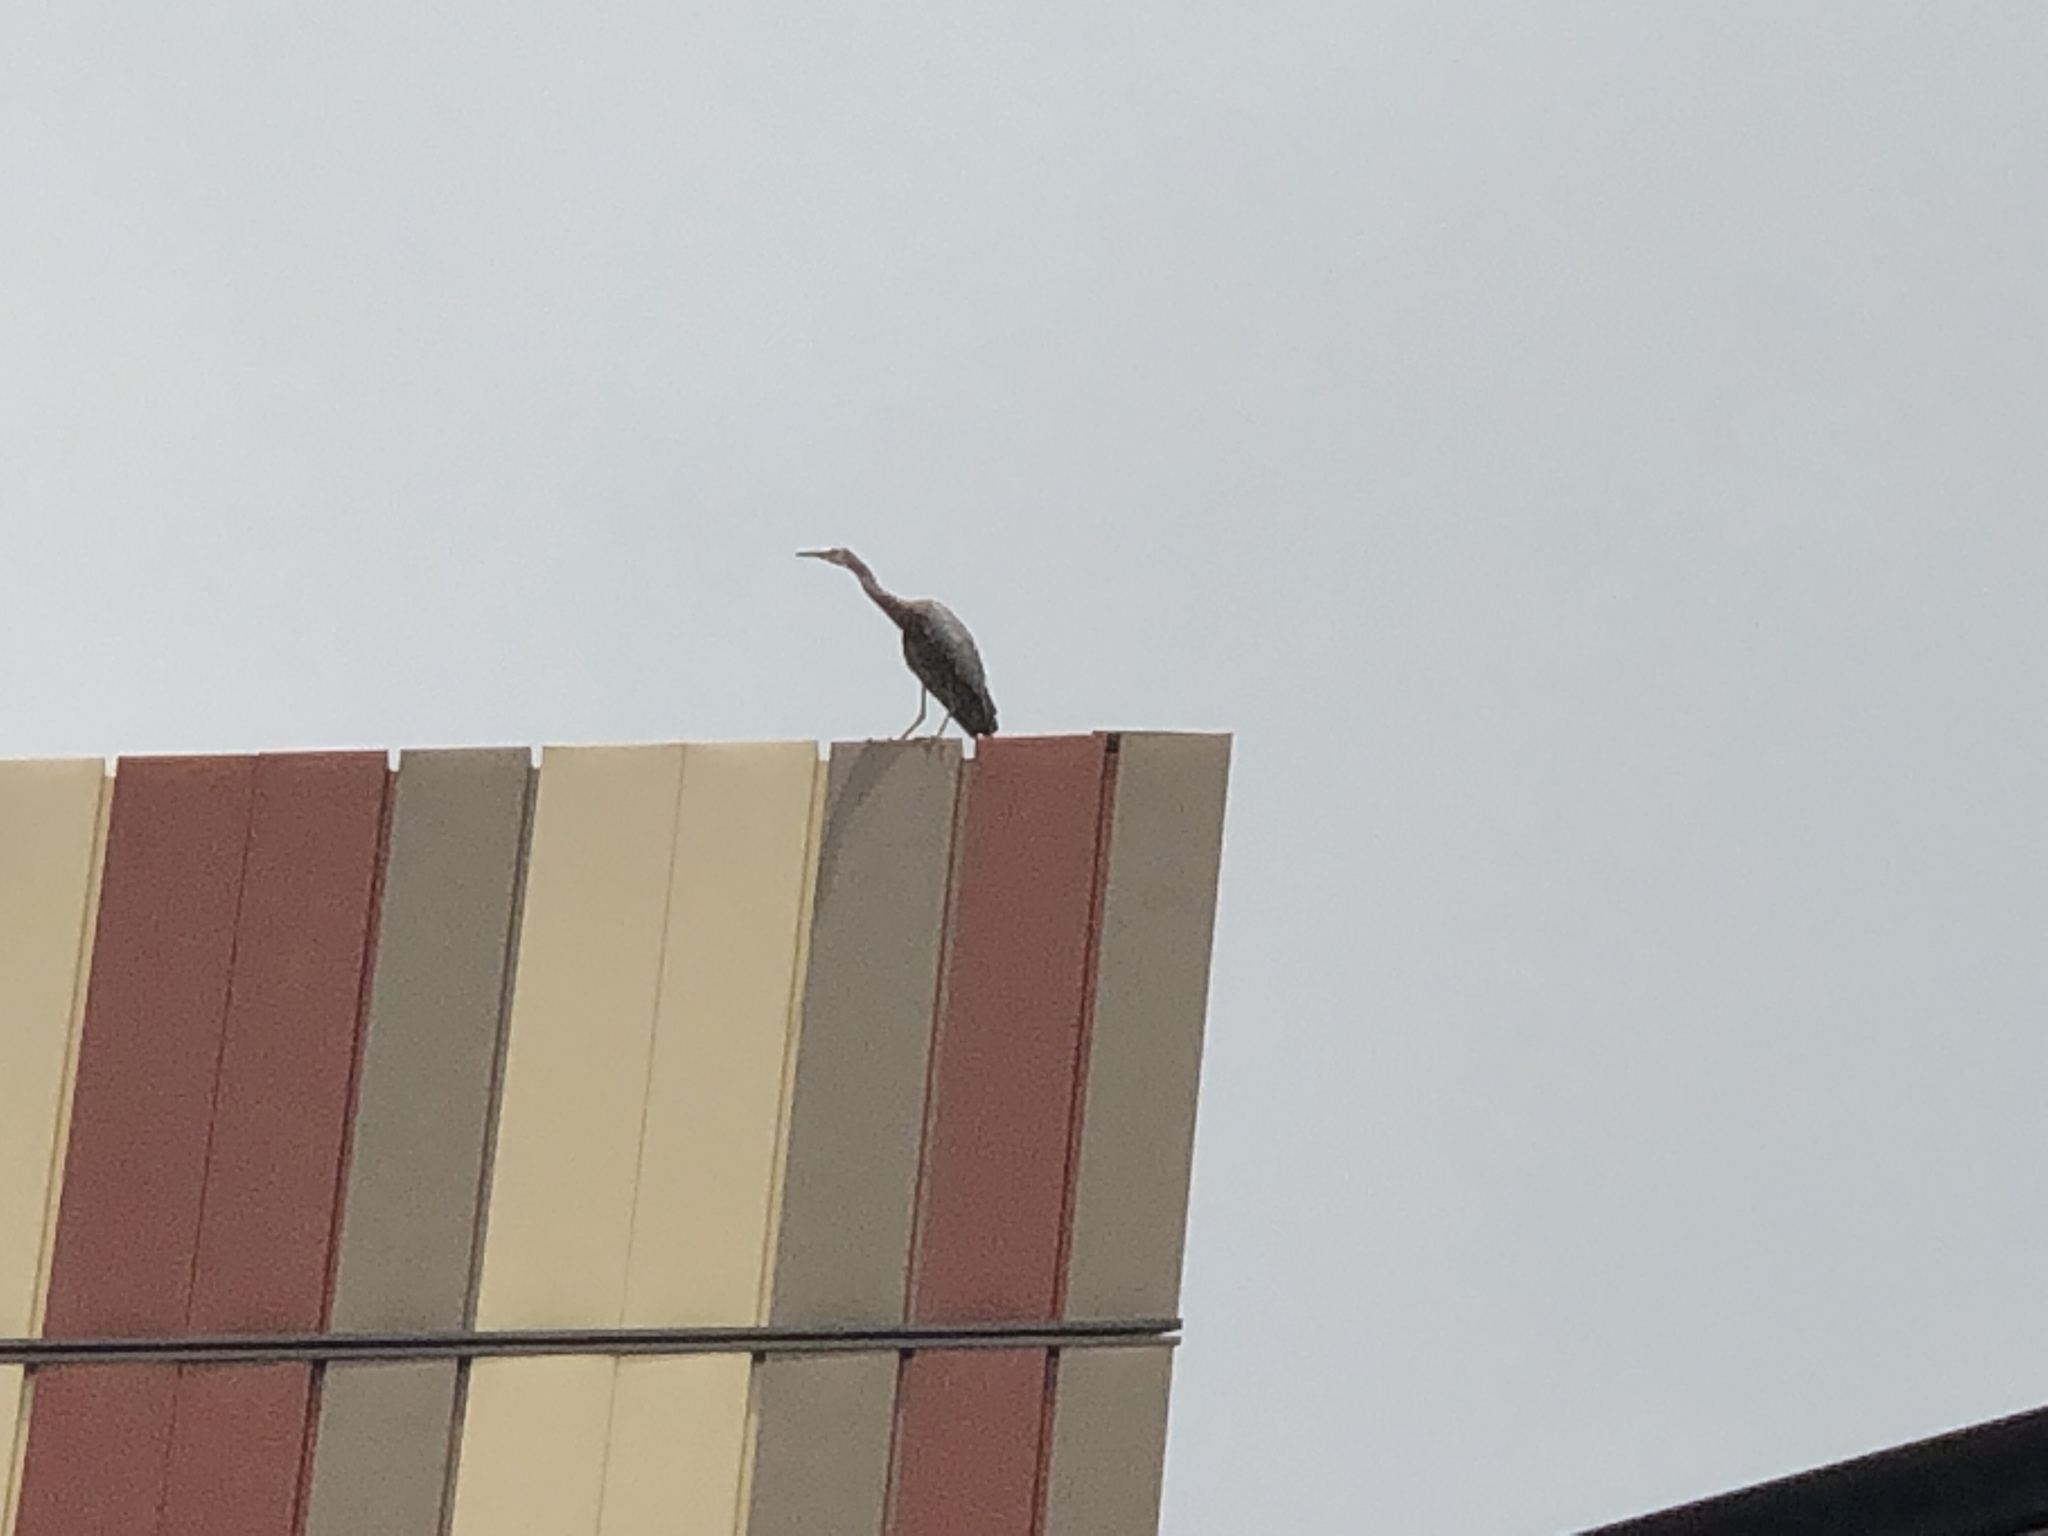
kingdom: Animalia
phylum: Chordata
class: Aves
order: Pelecaniformes
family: Ardeidae
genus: Egretta
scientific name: Egretta novaehollandiae
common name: White-faced heron
